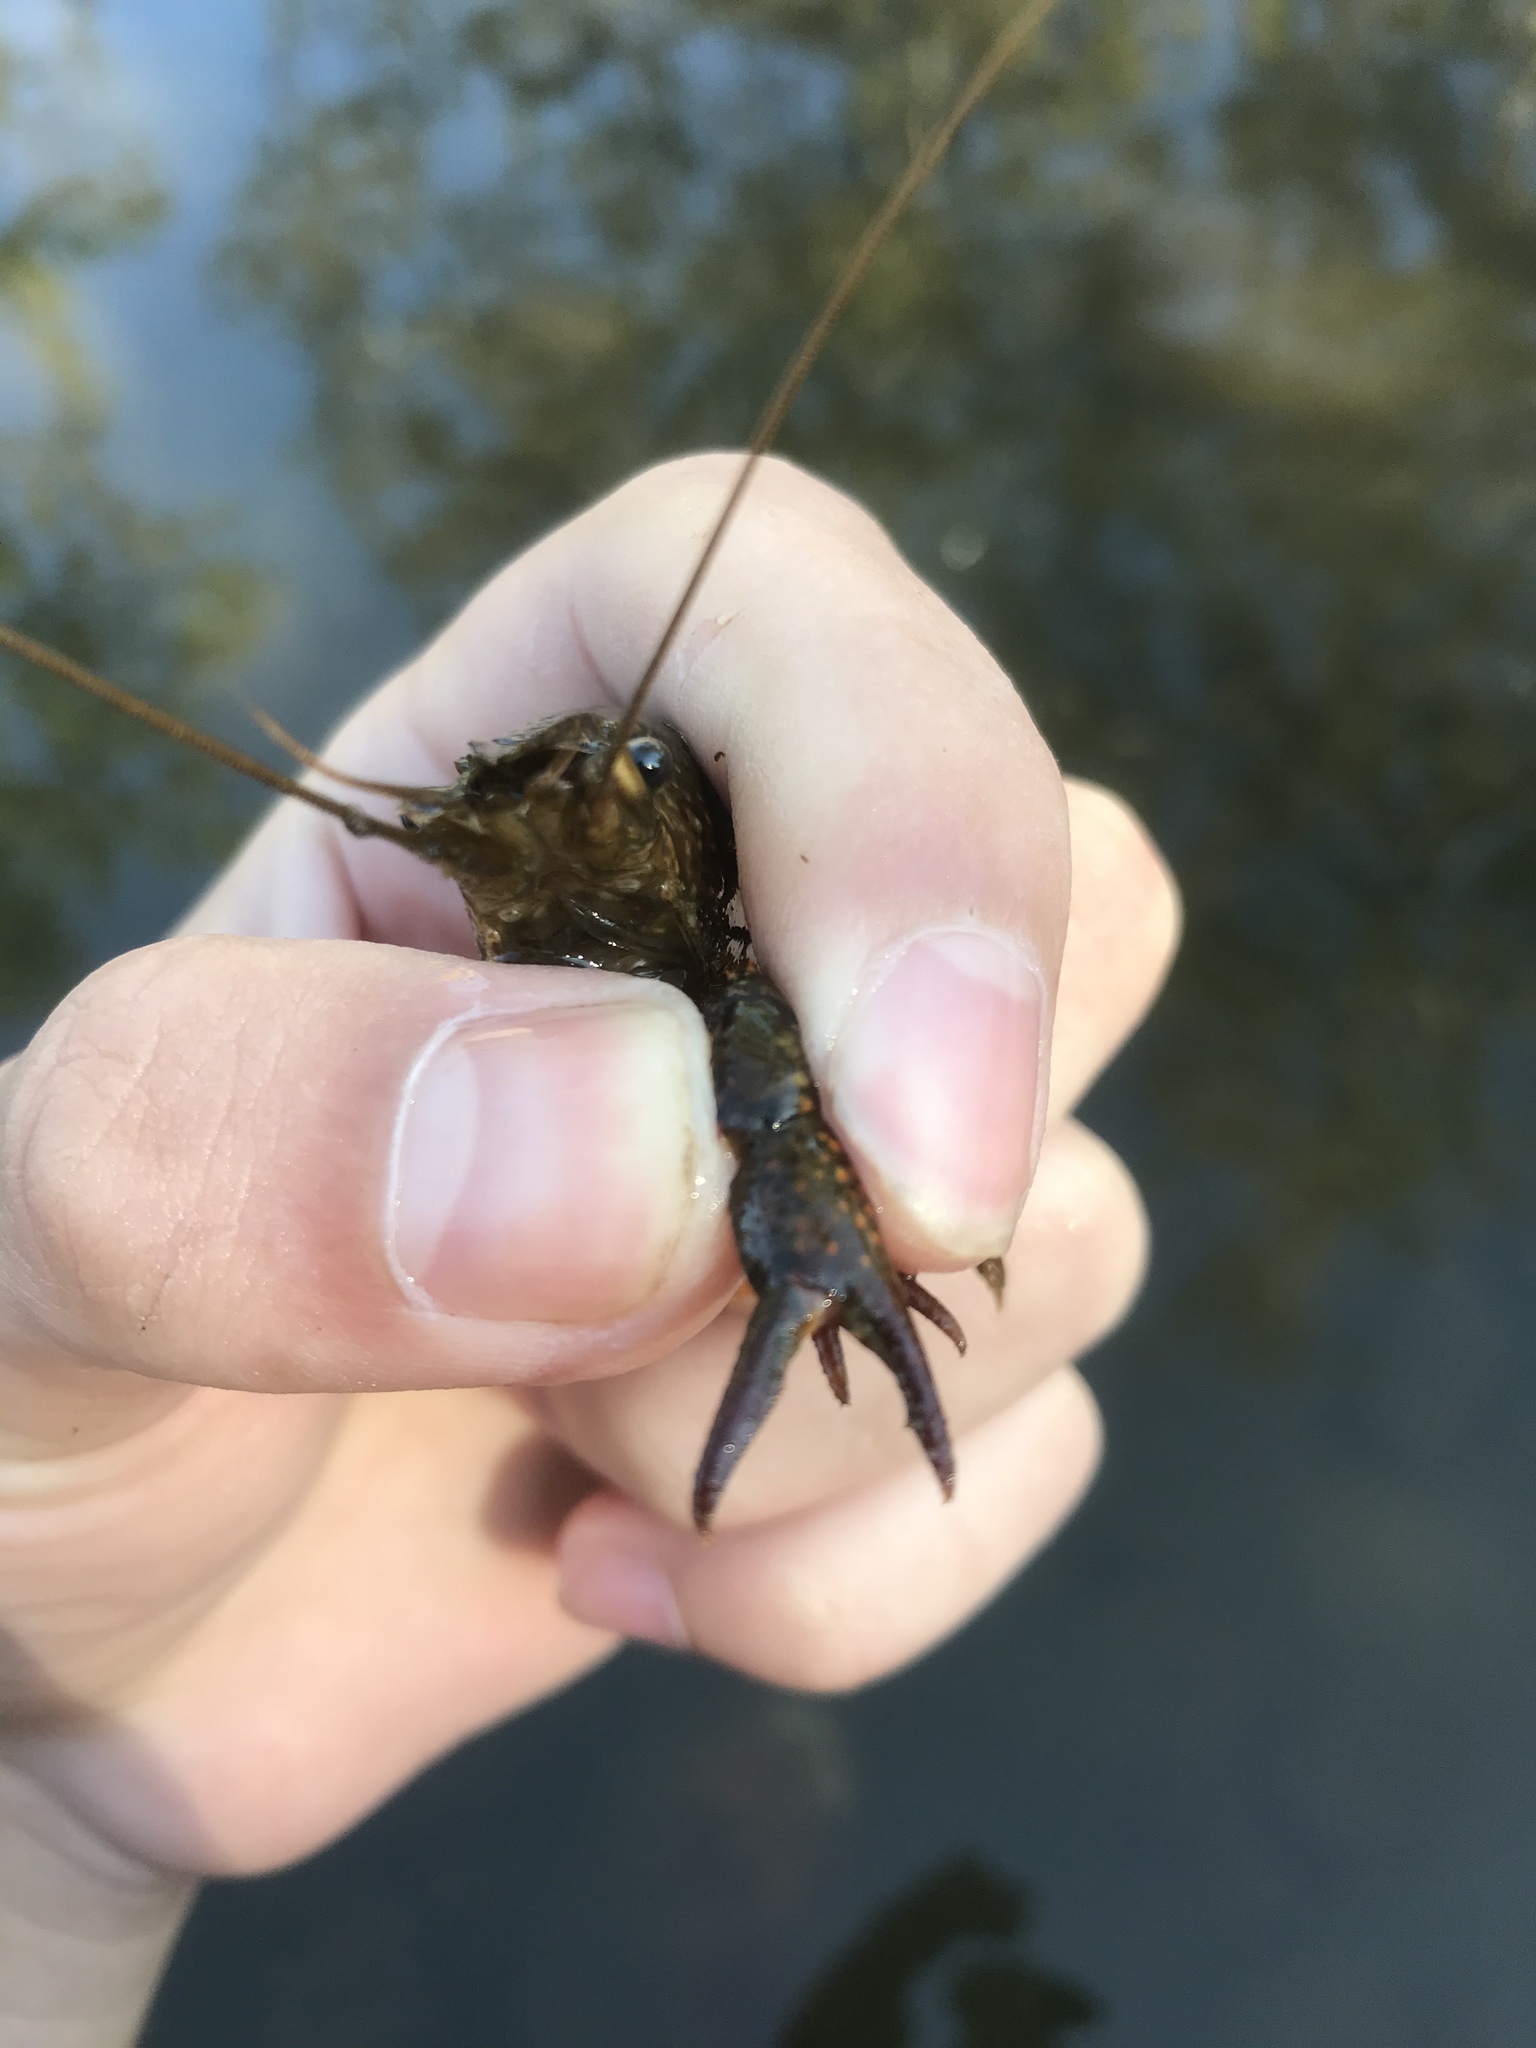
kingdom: Animalia
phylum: Arthropoda
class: Malacostraca
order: Decapoda
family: Cambaridae
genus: Procambarus
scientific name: Procambarus clarkii
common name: Red swamp crayfish
